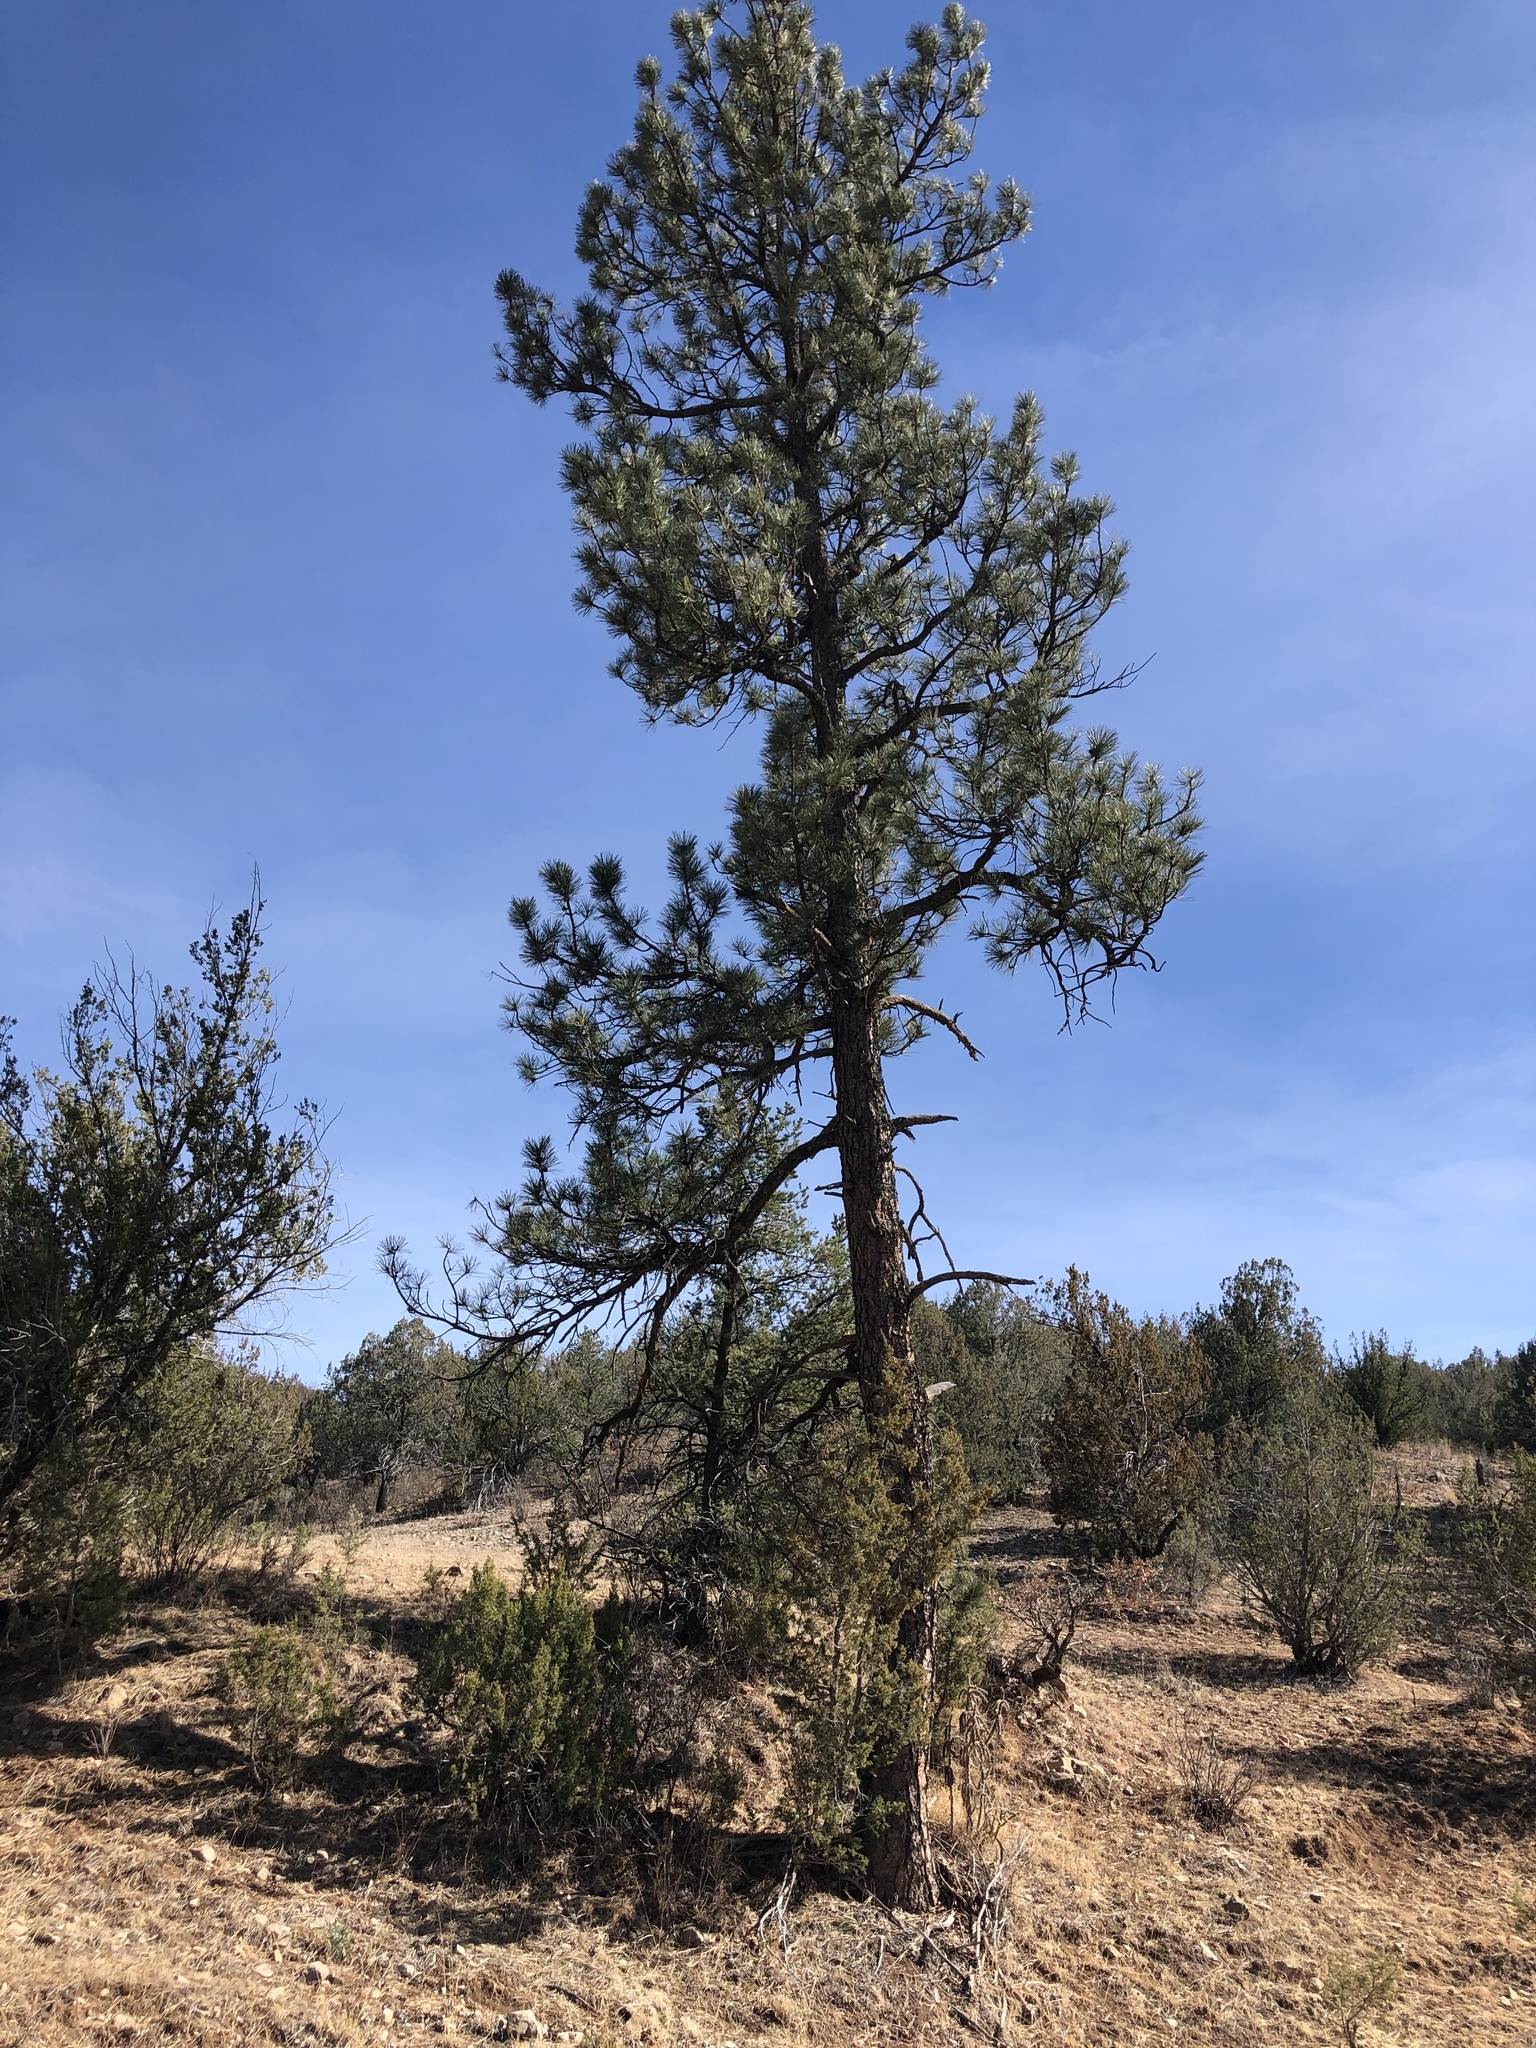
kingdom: Plantae
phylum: Tracheophyta
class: Pinopsida
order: Pinales
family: Pinaceae
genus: Pinus
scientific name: Pinus ponderosa
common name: Western yellow-pine
